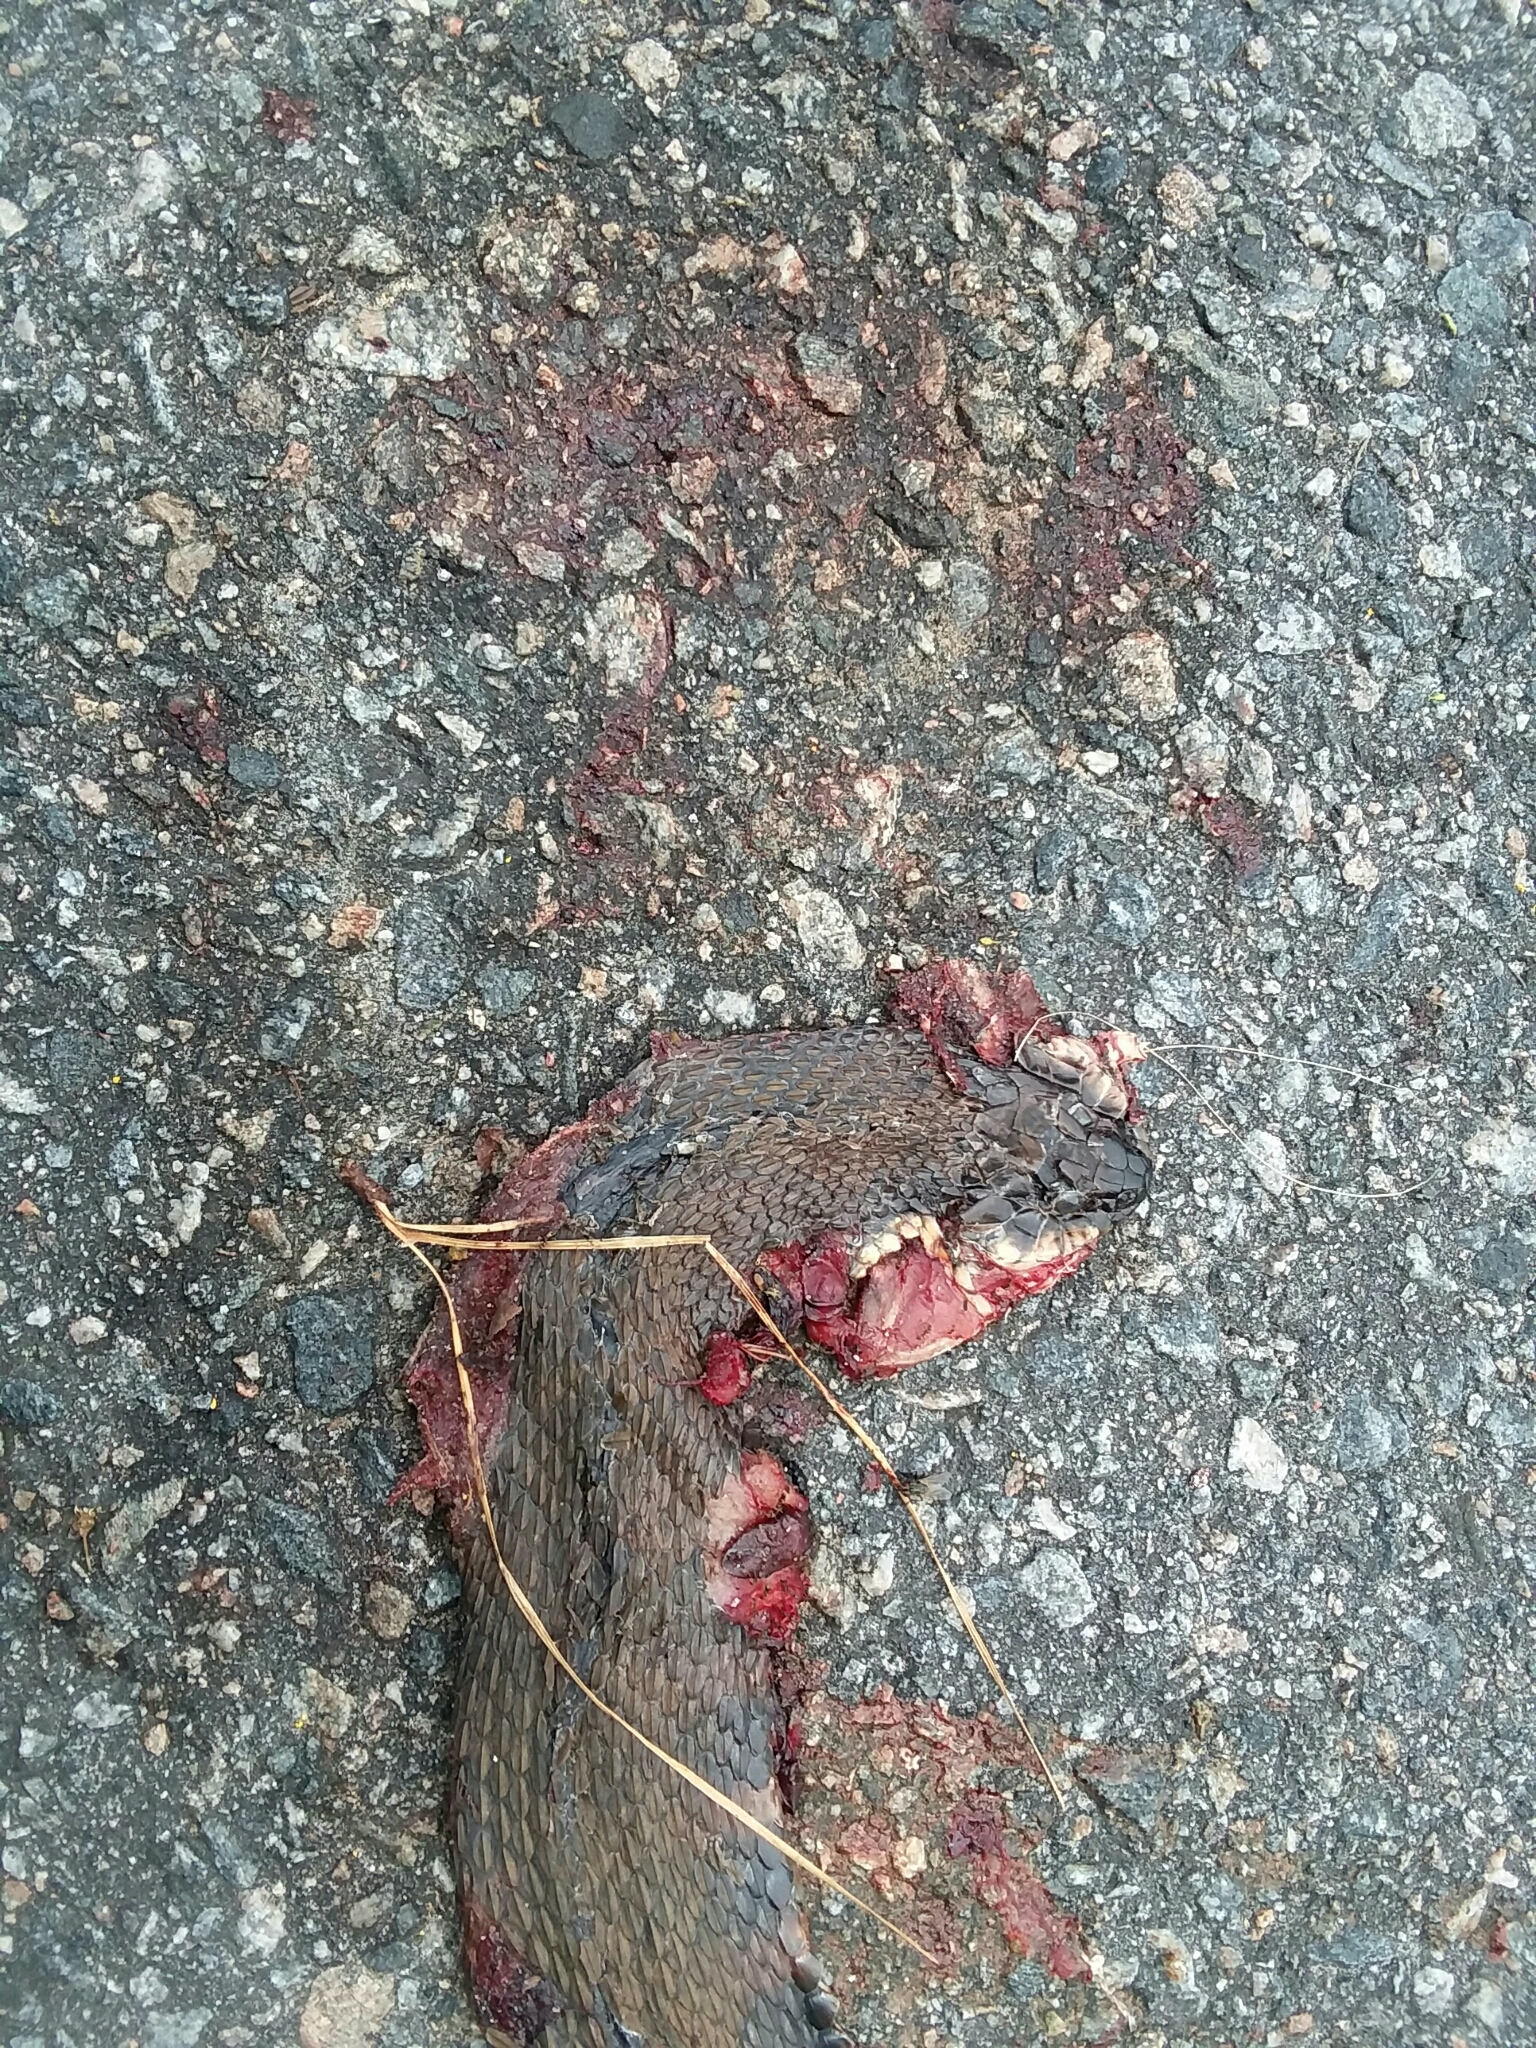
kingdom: Animalia
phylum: Chordata
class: Squamata
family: Colubridae
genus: Nerodia
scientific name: Nerodia fasciata
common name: Southern water snake
